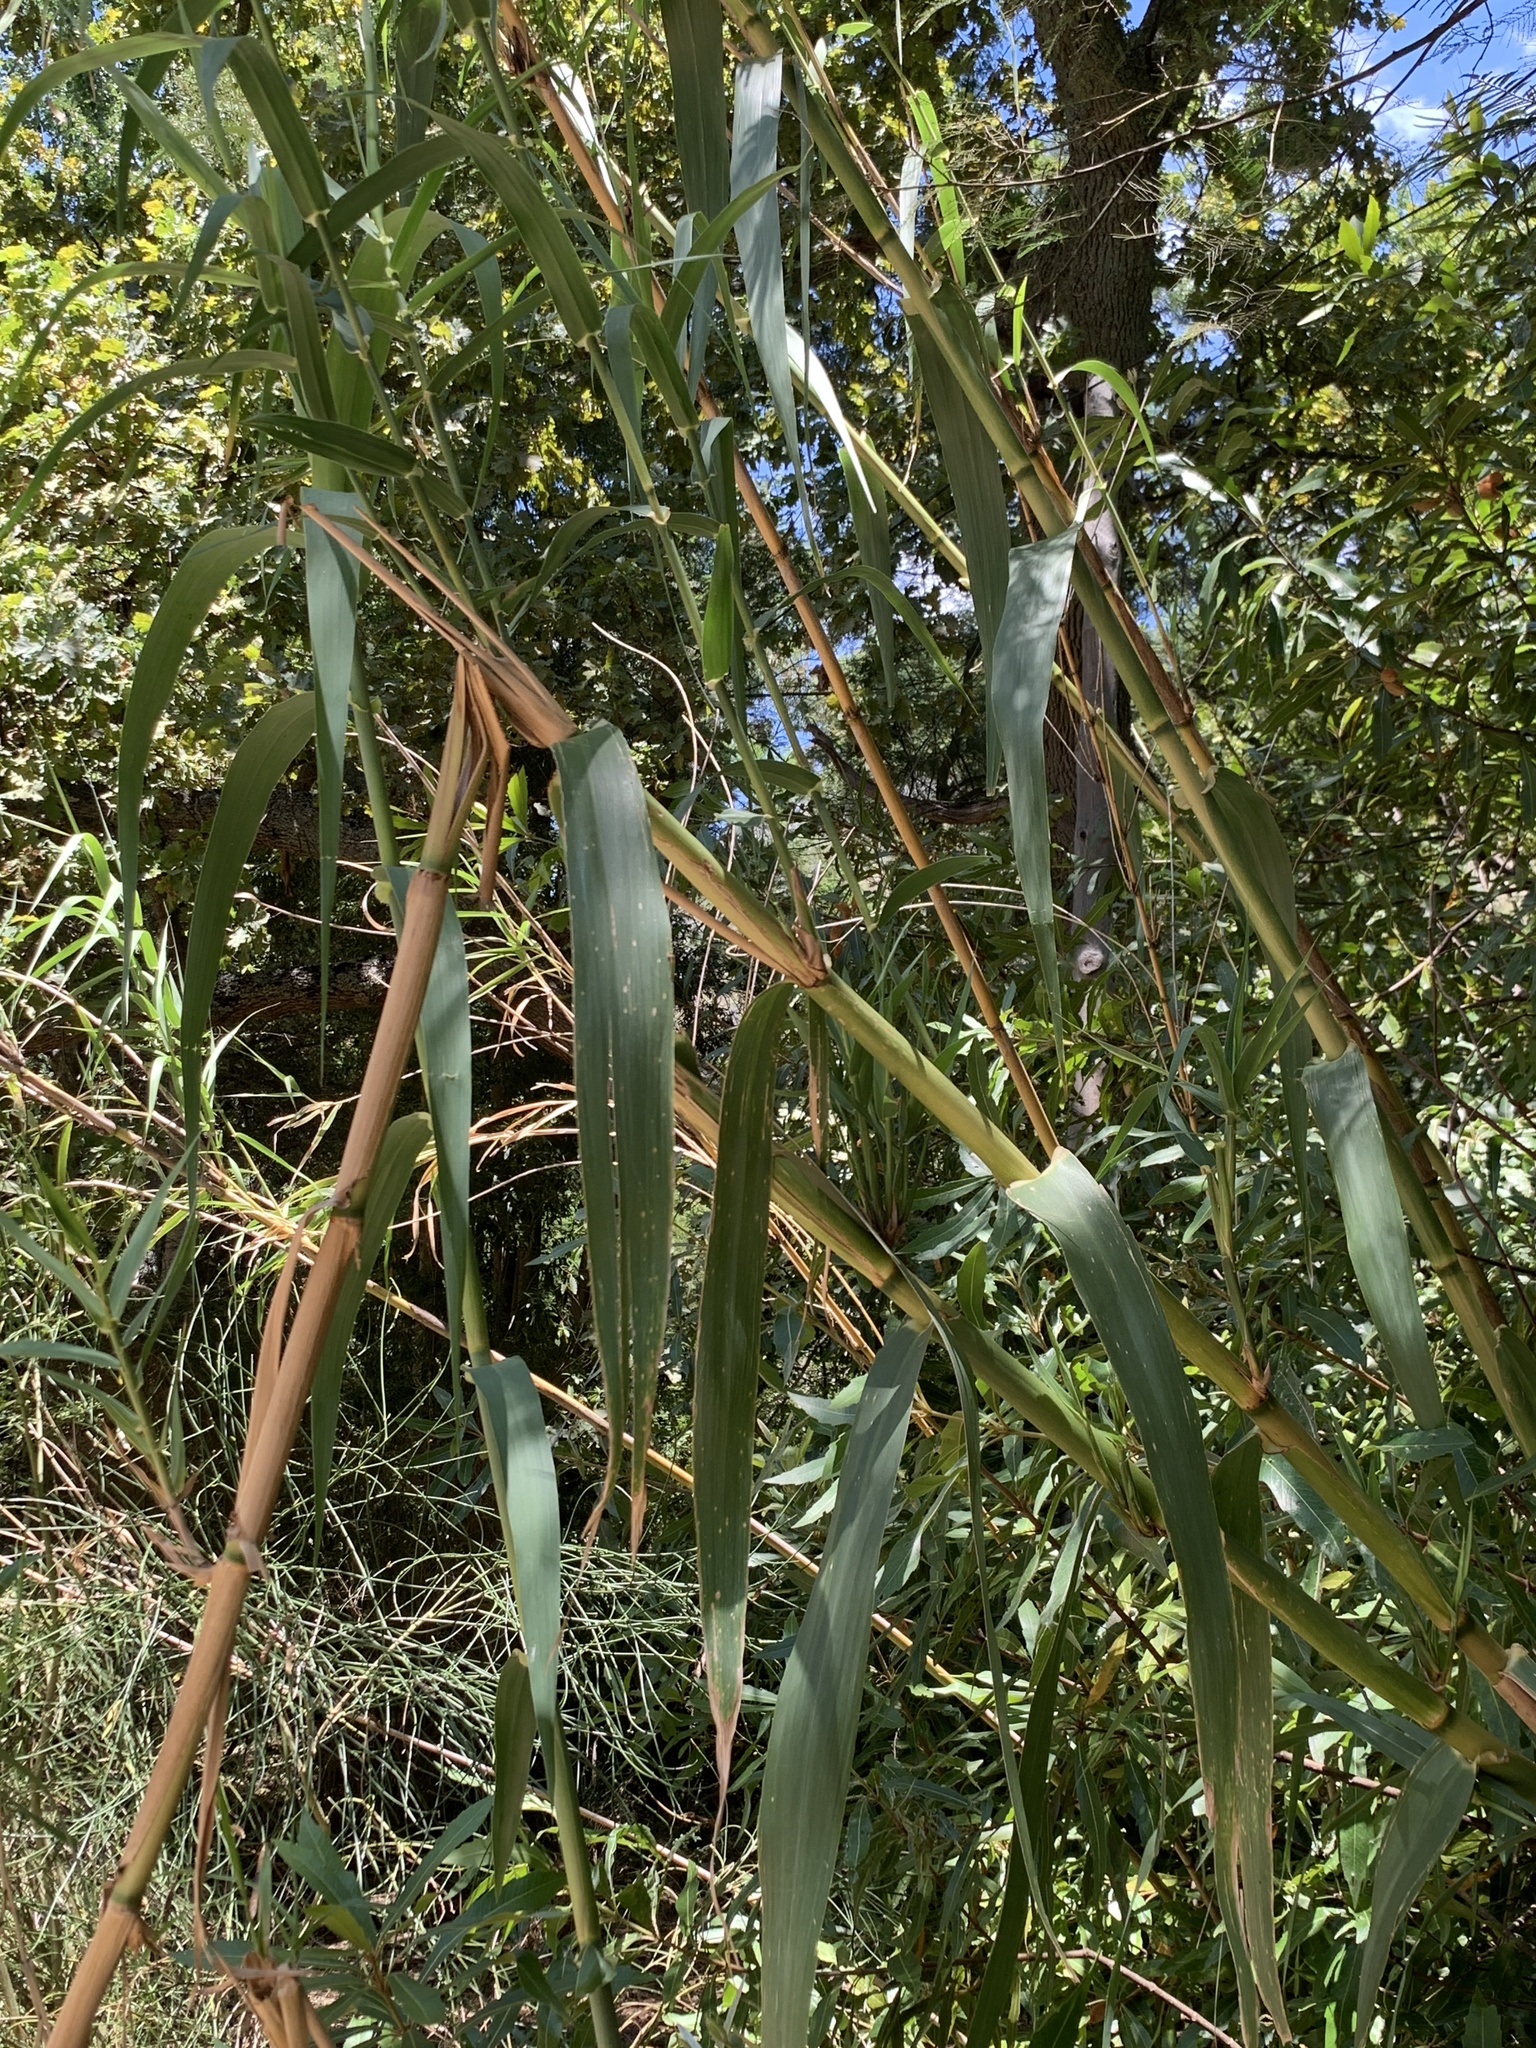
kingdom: Plantae
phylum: Tracheophyta
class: Liliopsida
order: Poales
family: Poaceae
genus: Arundo
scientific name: Arundo donax
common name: Giant reed
